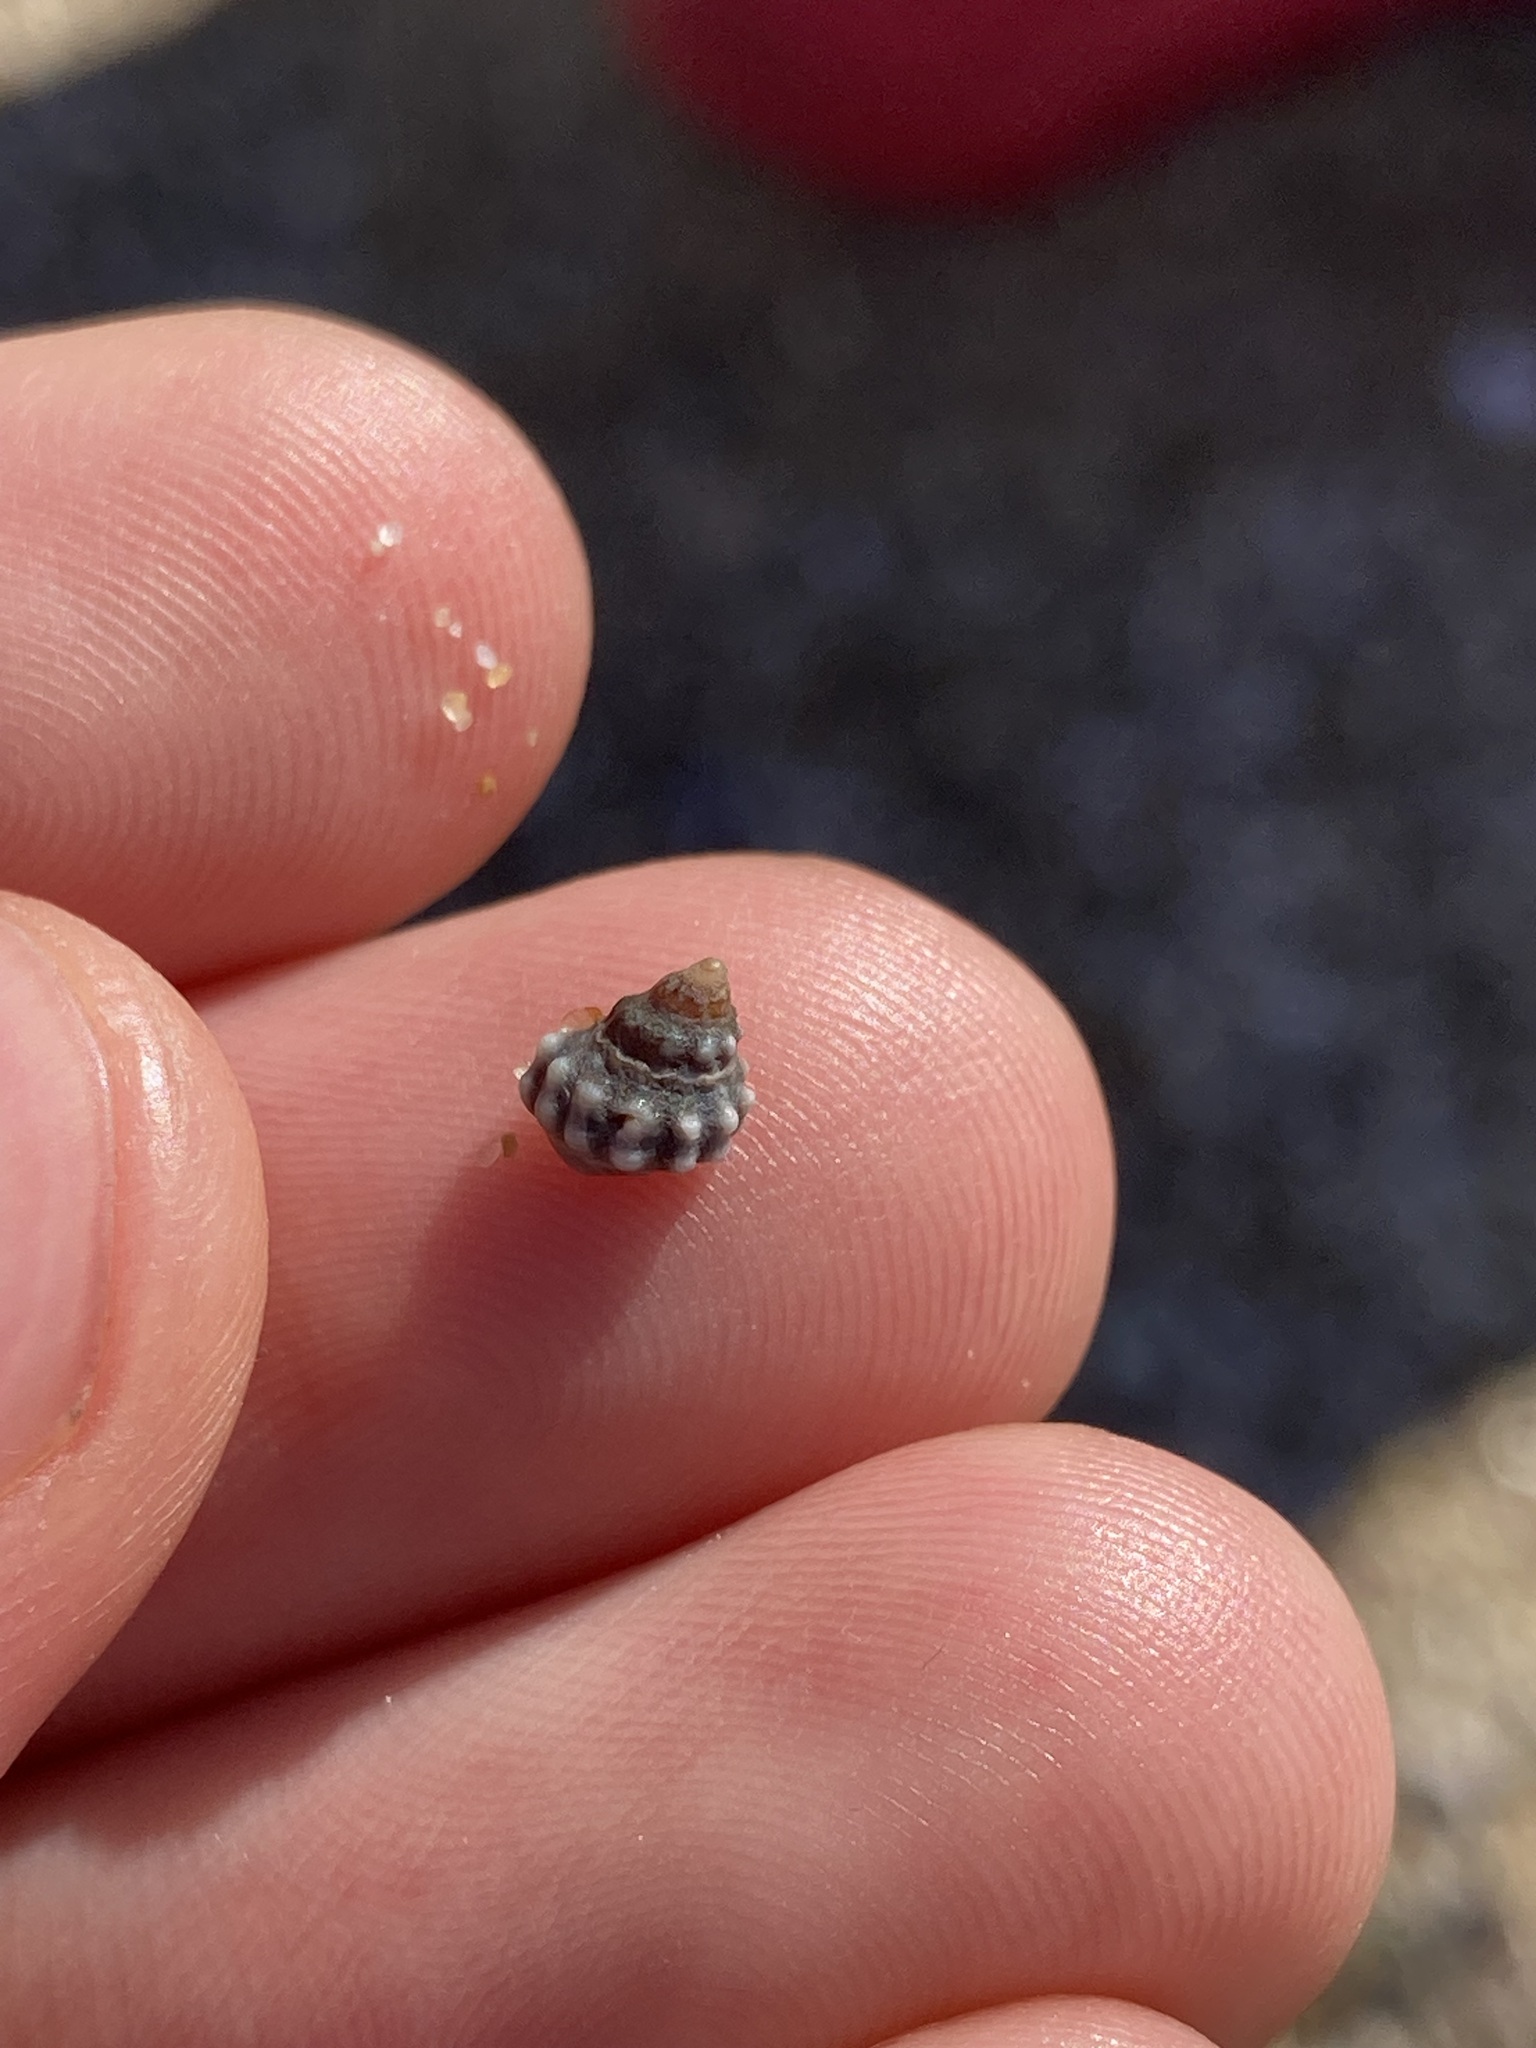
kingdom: Animalia
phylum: Mollusca
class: Gastropoda
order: Littorinimorpha
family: Littorinidae
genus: Nodilittorina
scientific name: Nodilittorina pyramidalis
